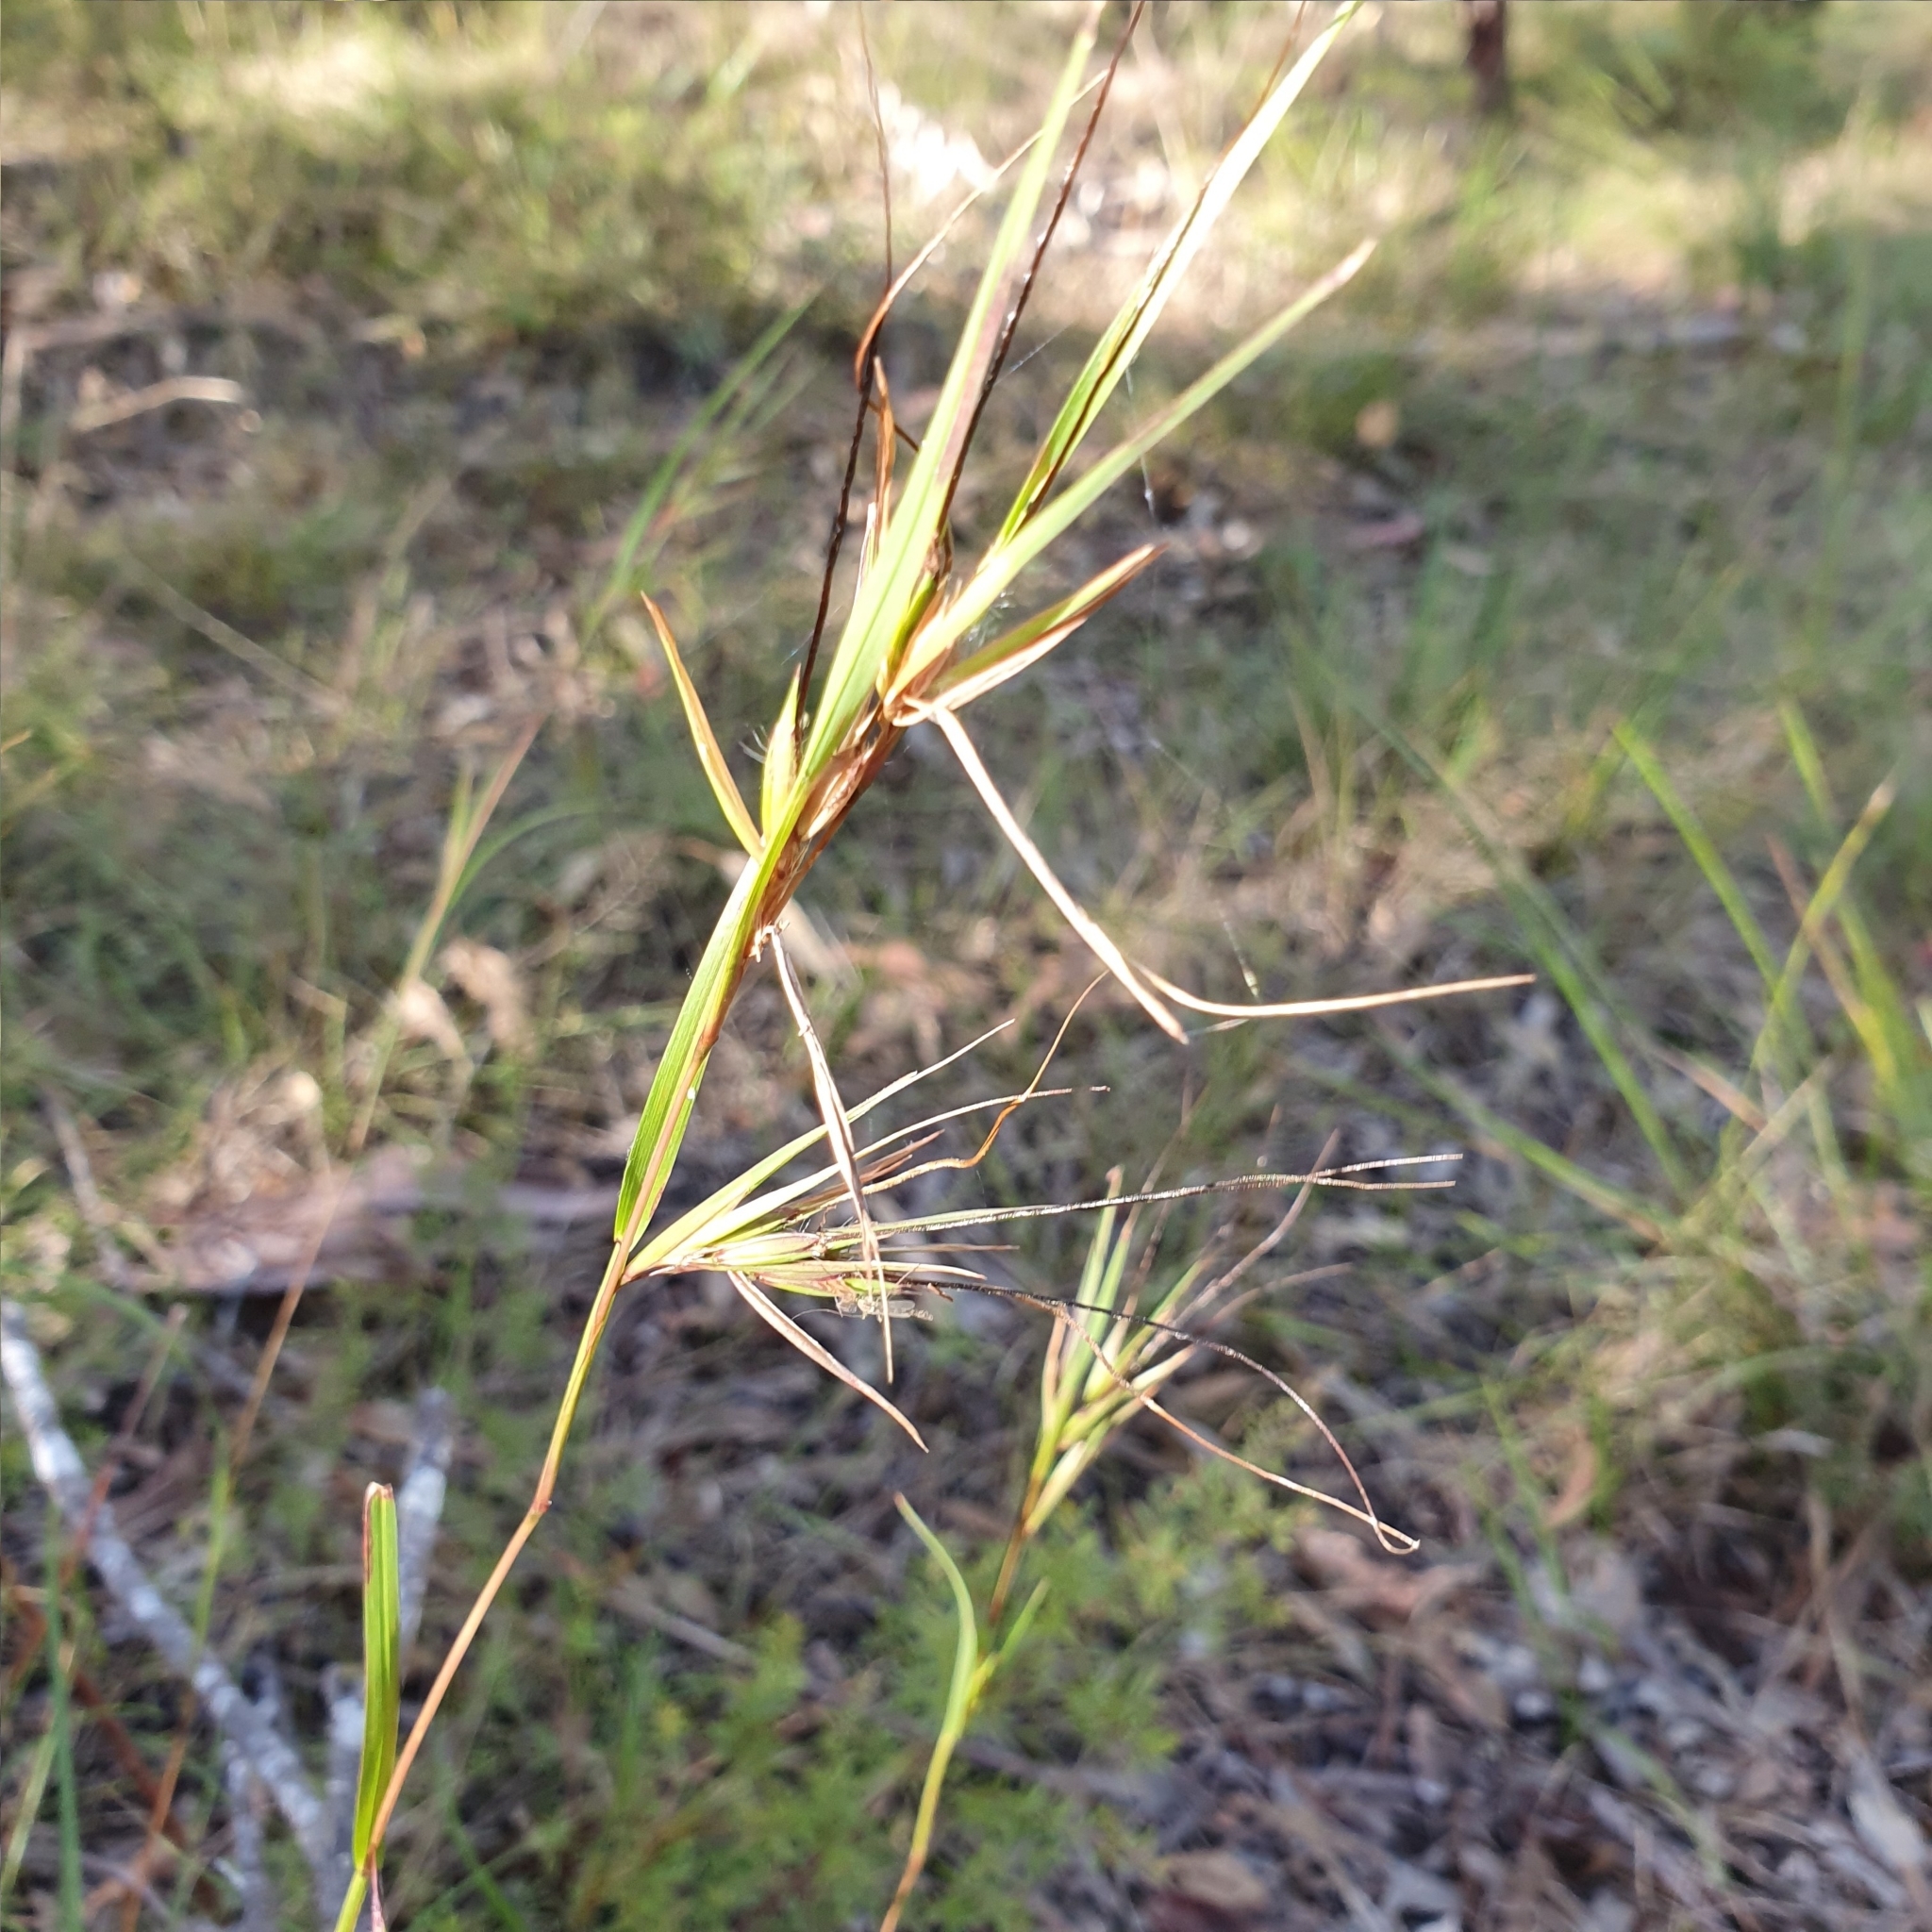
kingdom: Plantae
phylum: Tracheophyta
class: Liliopsida
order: Poales
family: Poaceae
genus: Themeda
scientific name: Themeda triandra
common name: Kangaroo grass
